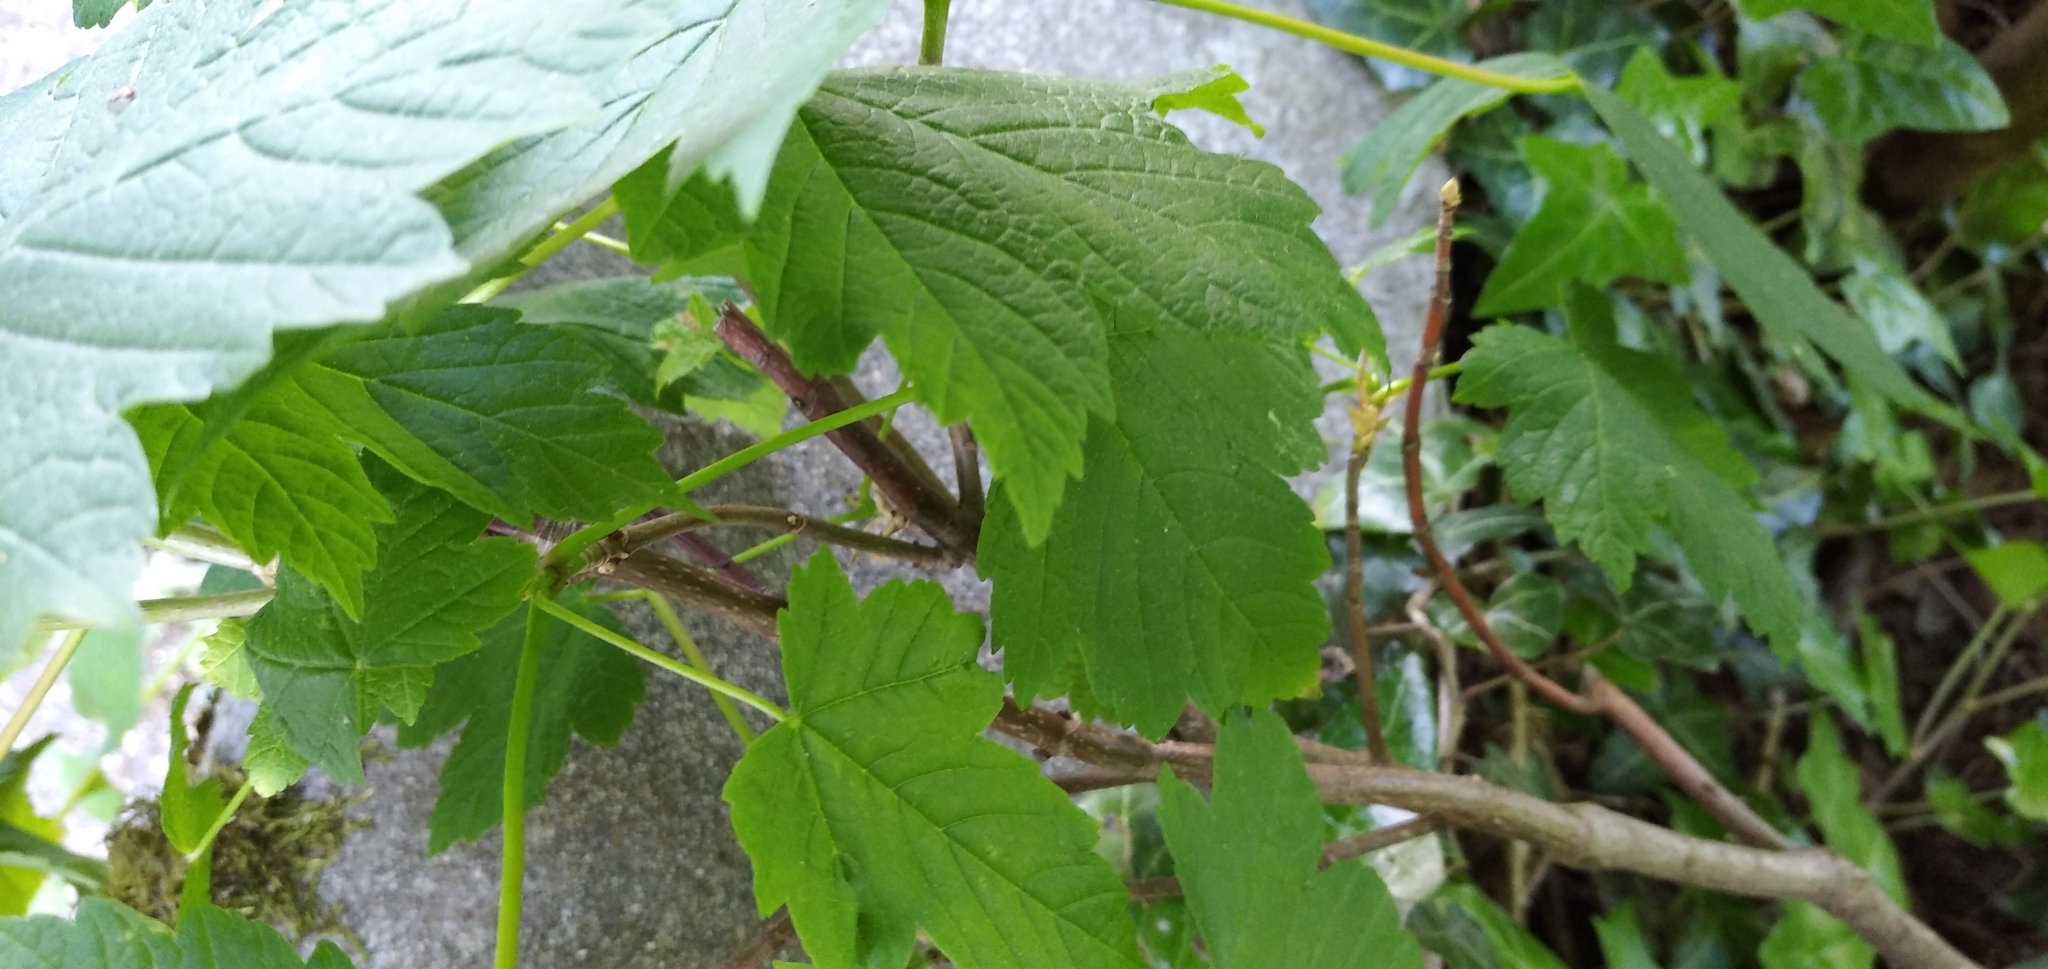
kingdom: Animalia
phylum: Arthropoda
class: Arachnida
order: Trombidiformes
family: Eriophyidae
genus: Aceria
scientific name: Aceria macrorhynchus
